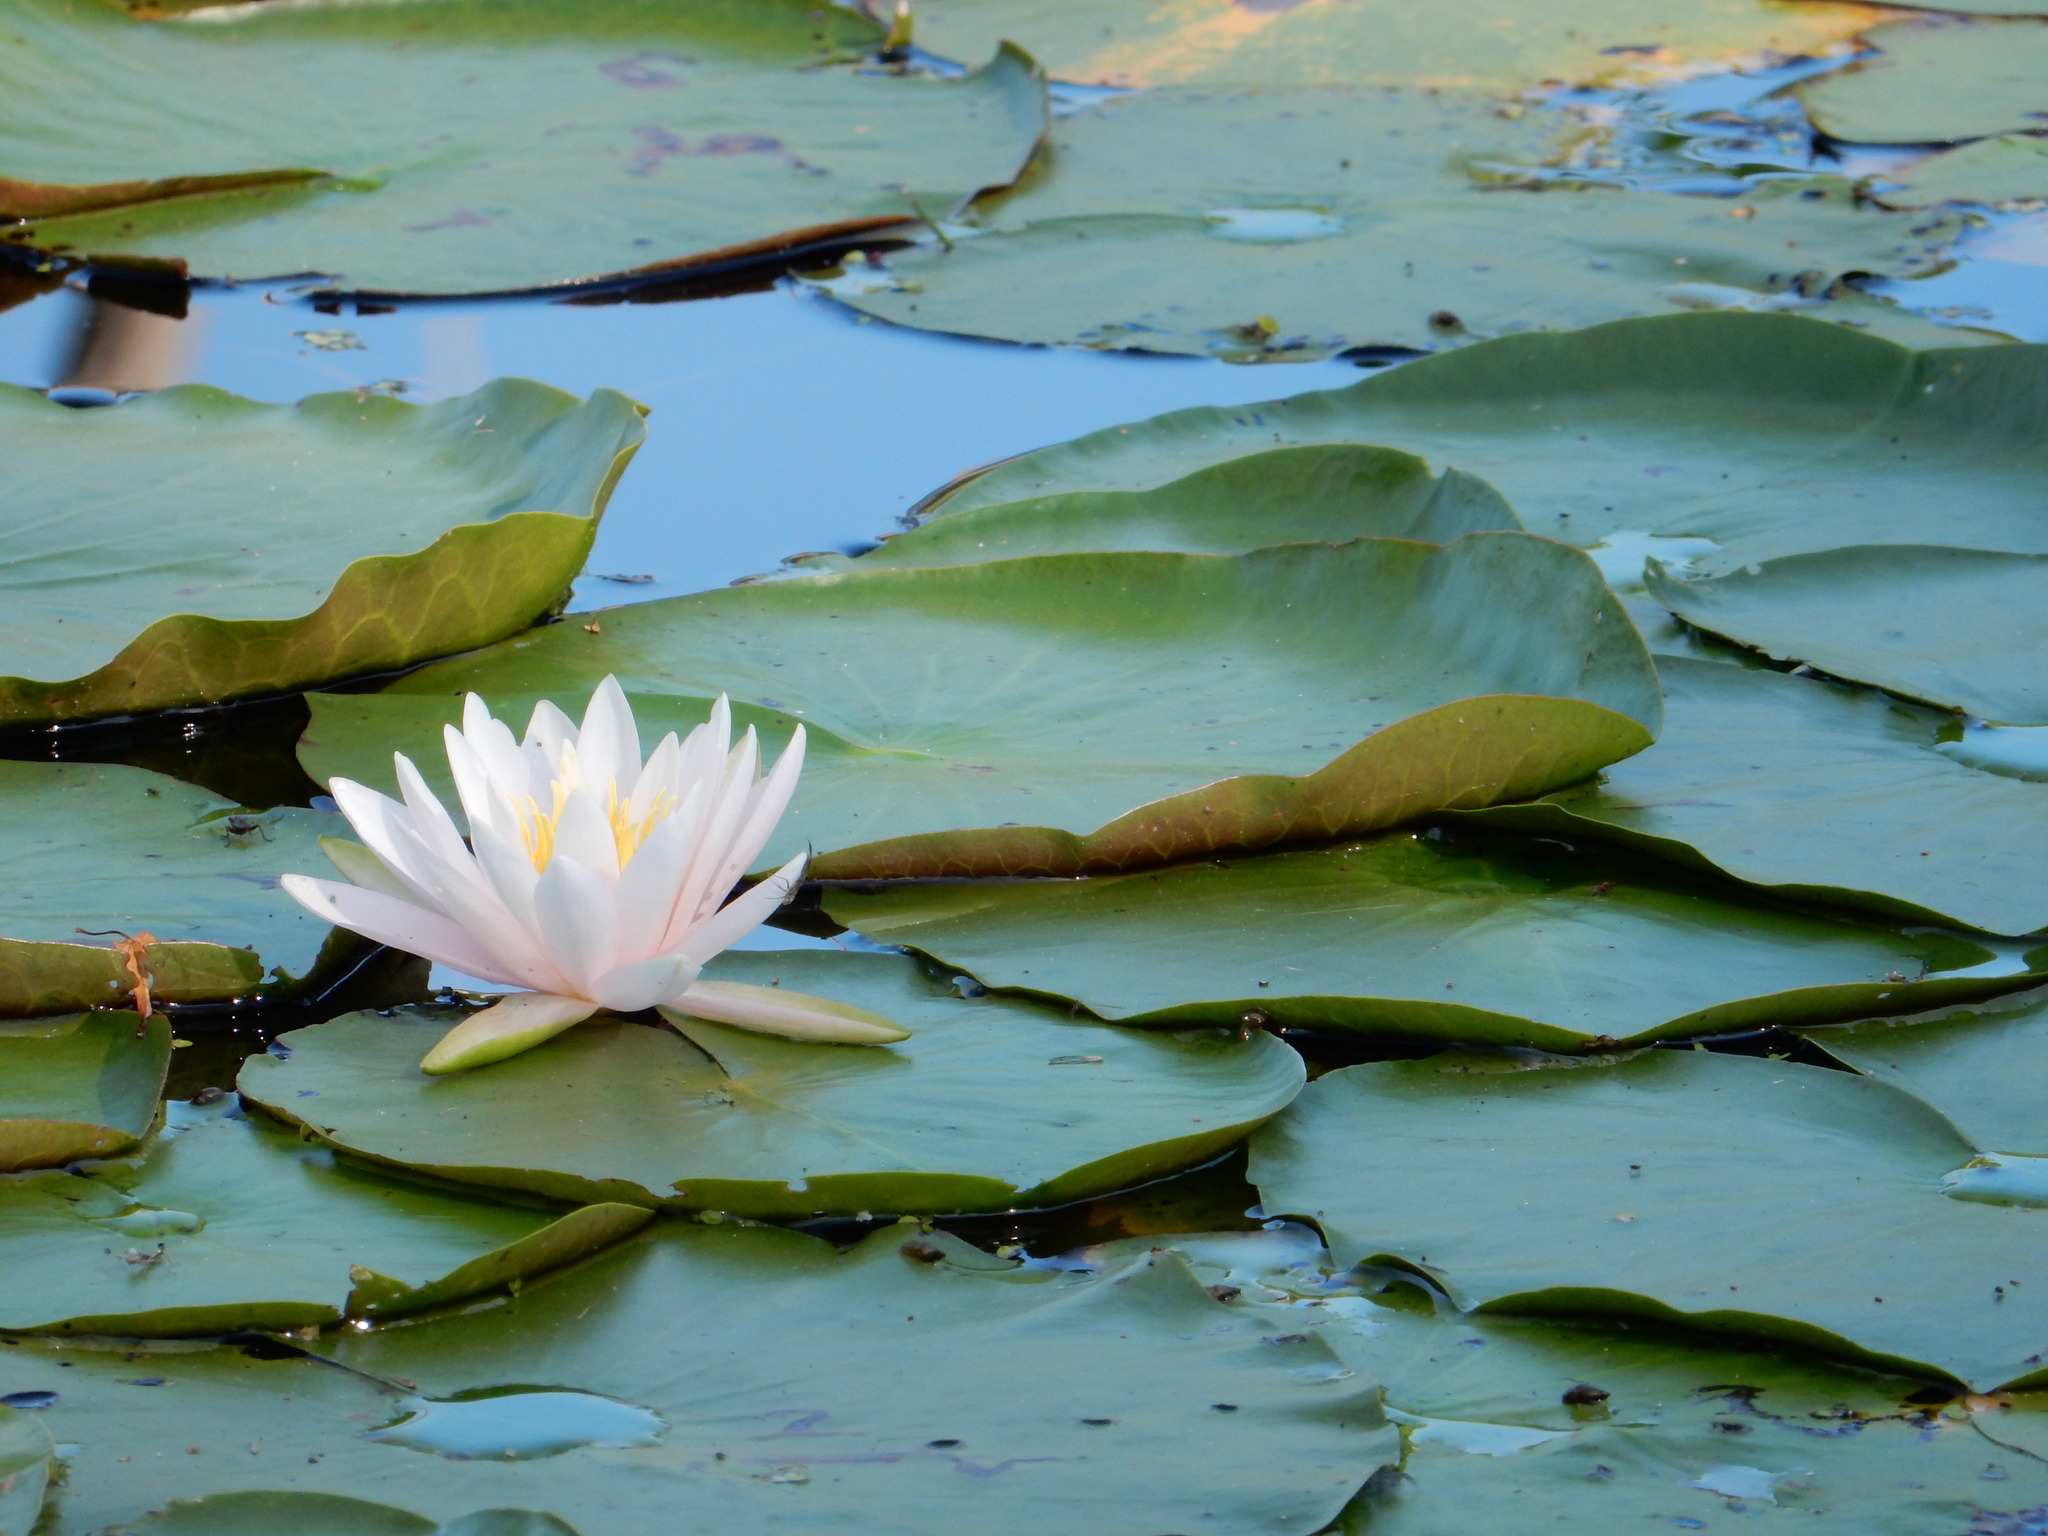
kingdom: Plantae
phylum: Tracheophyta
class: Magnoliopsida
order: Nymphaeales
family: Nymphaeaceae
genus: Nymphaea
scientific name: Nymphaea odorata
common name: Fragrant water-lily
